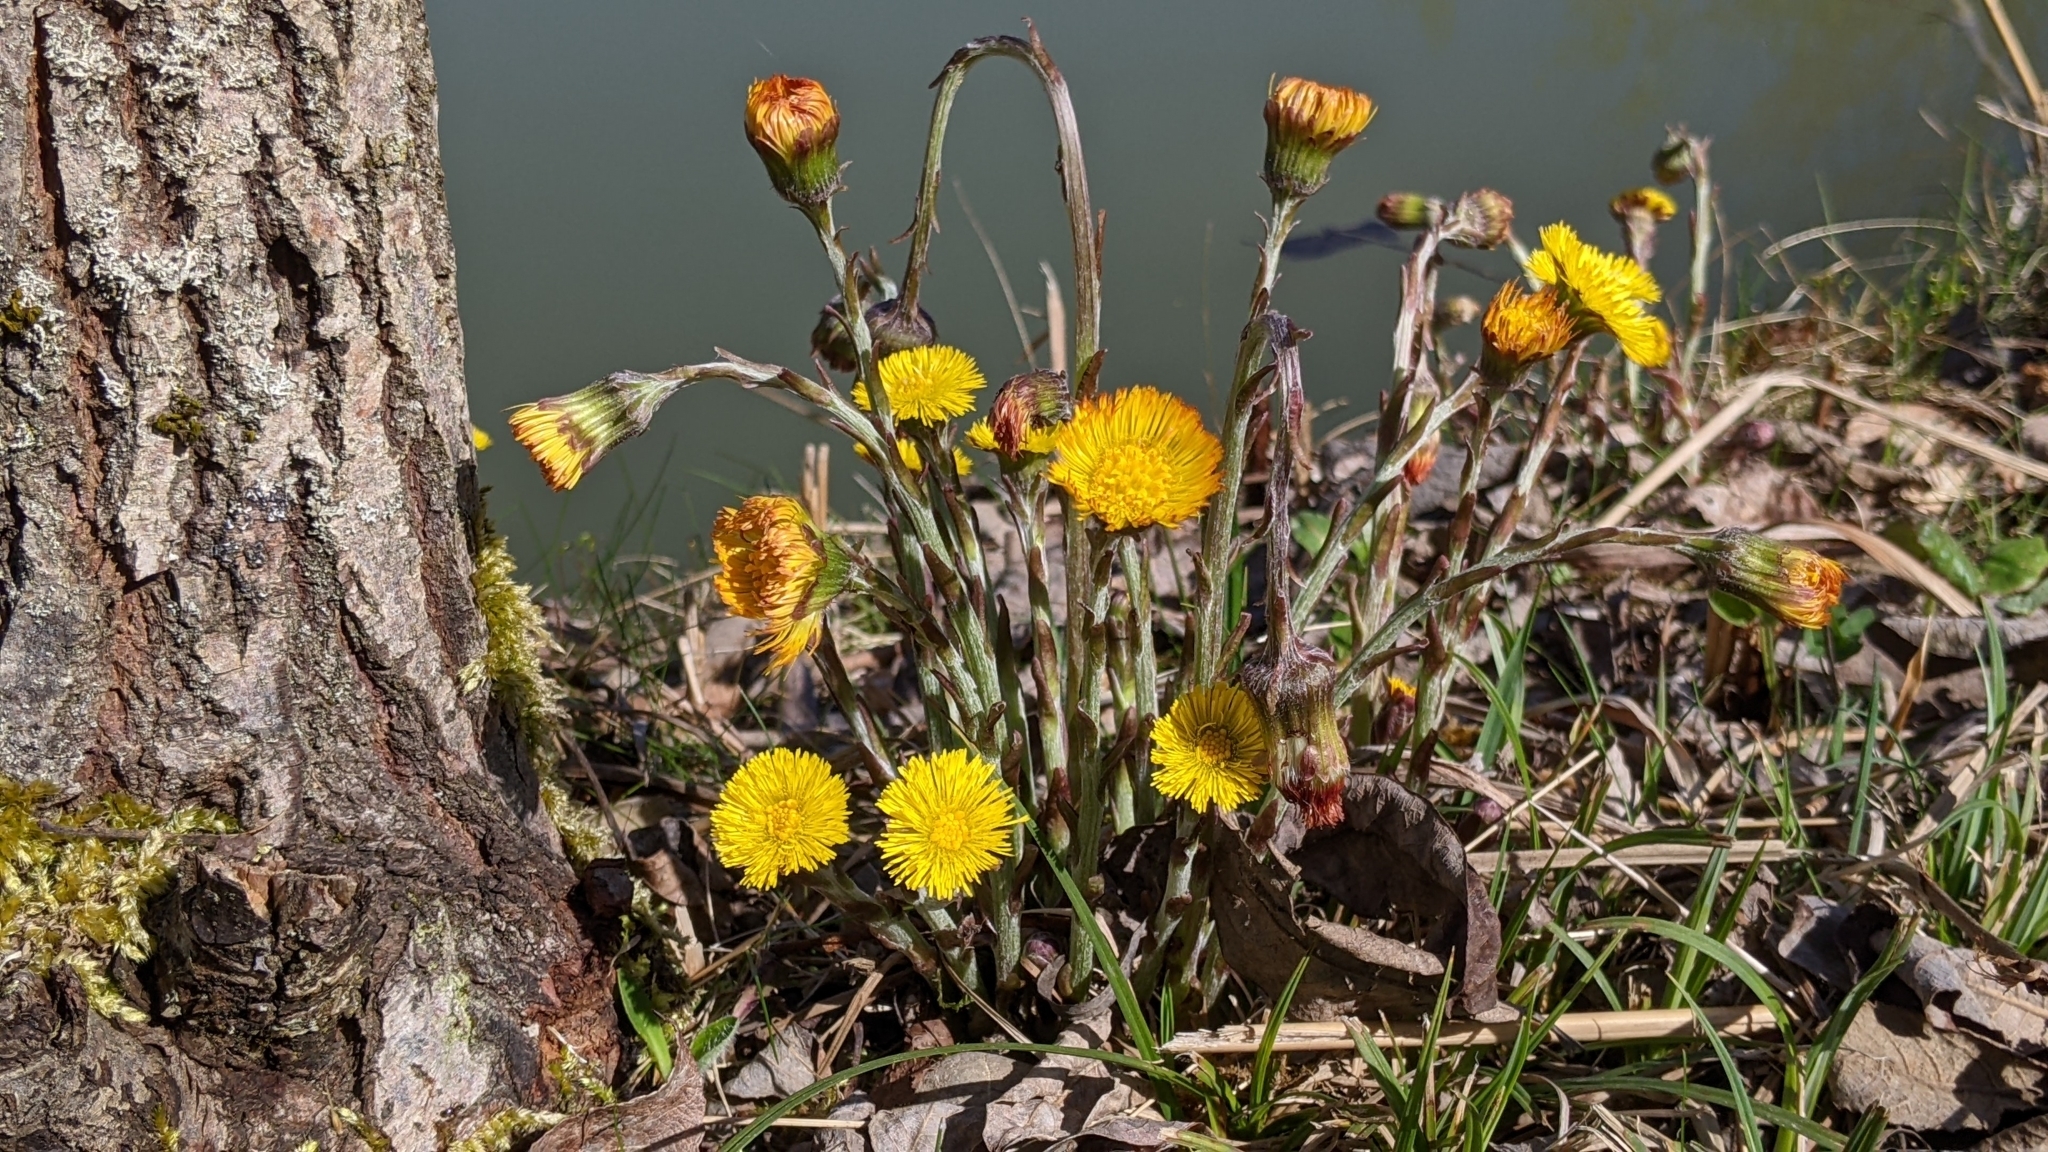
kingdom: Plantae
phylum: Tracheophyta
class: Magnoliopsida
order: Asterales
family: Asteraceae
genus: Tussilago
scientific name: Tussilago farfara
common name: Coltsfoot
